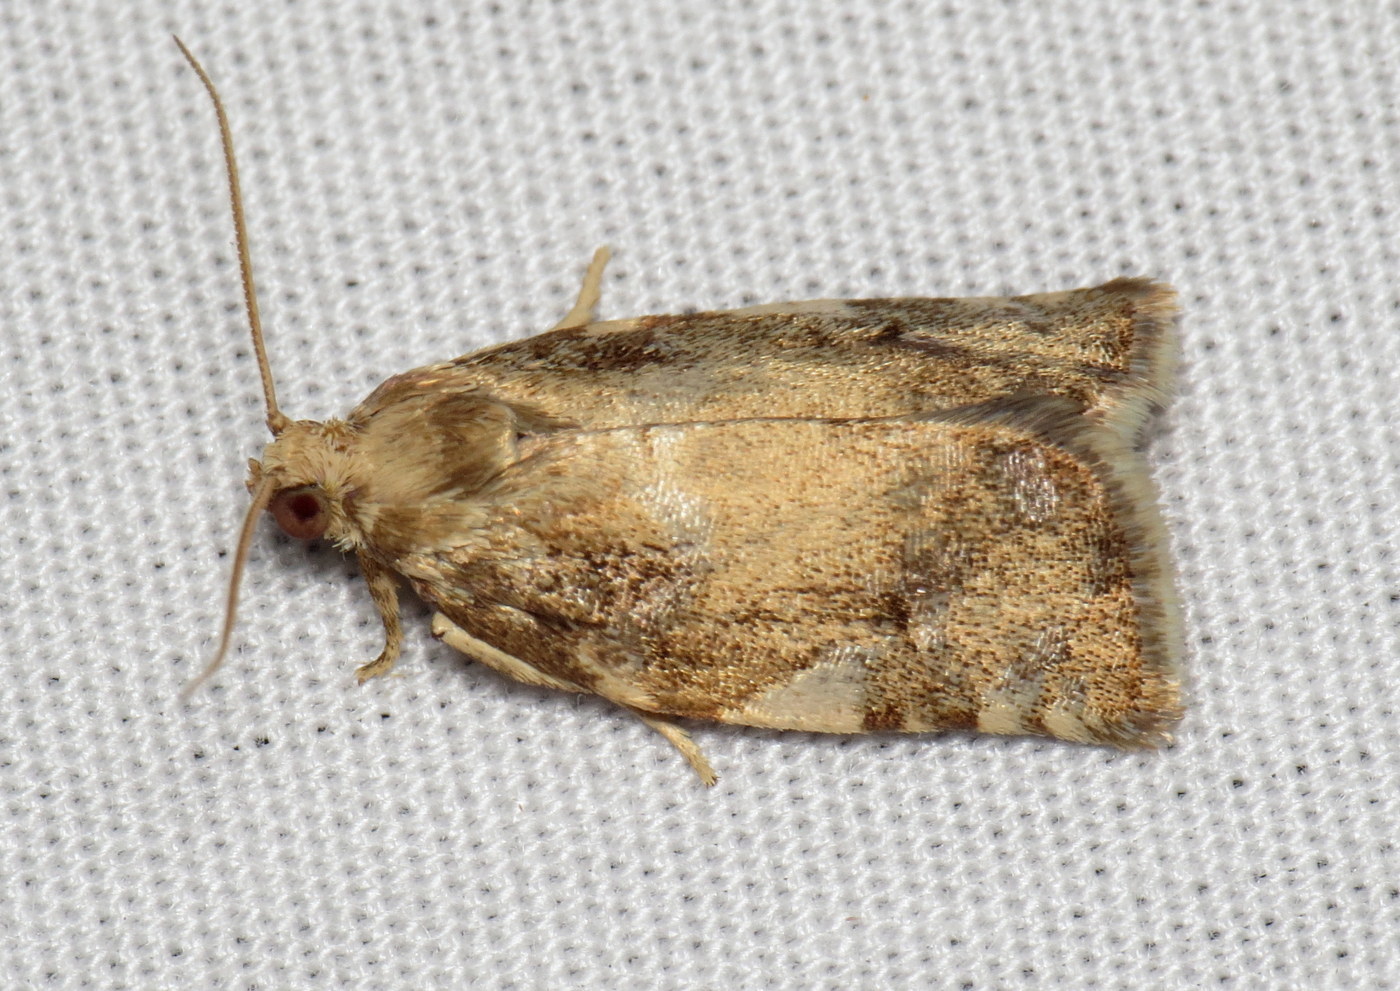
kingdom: Animalia
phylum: Arthropoda
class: Insecta
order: Lepidoptera
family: Tortricidae
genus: Archips
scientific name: Archips semiferanus
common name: Oak leafroller
